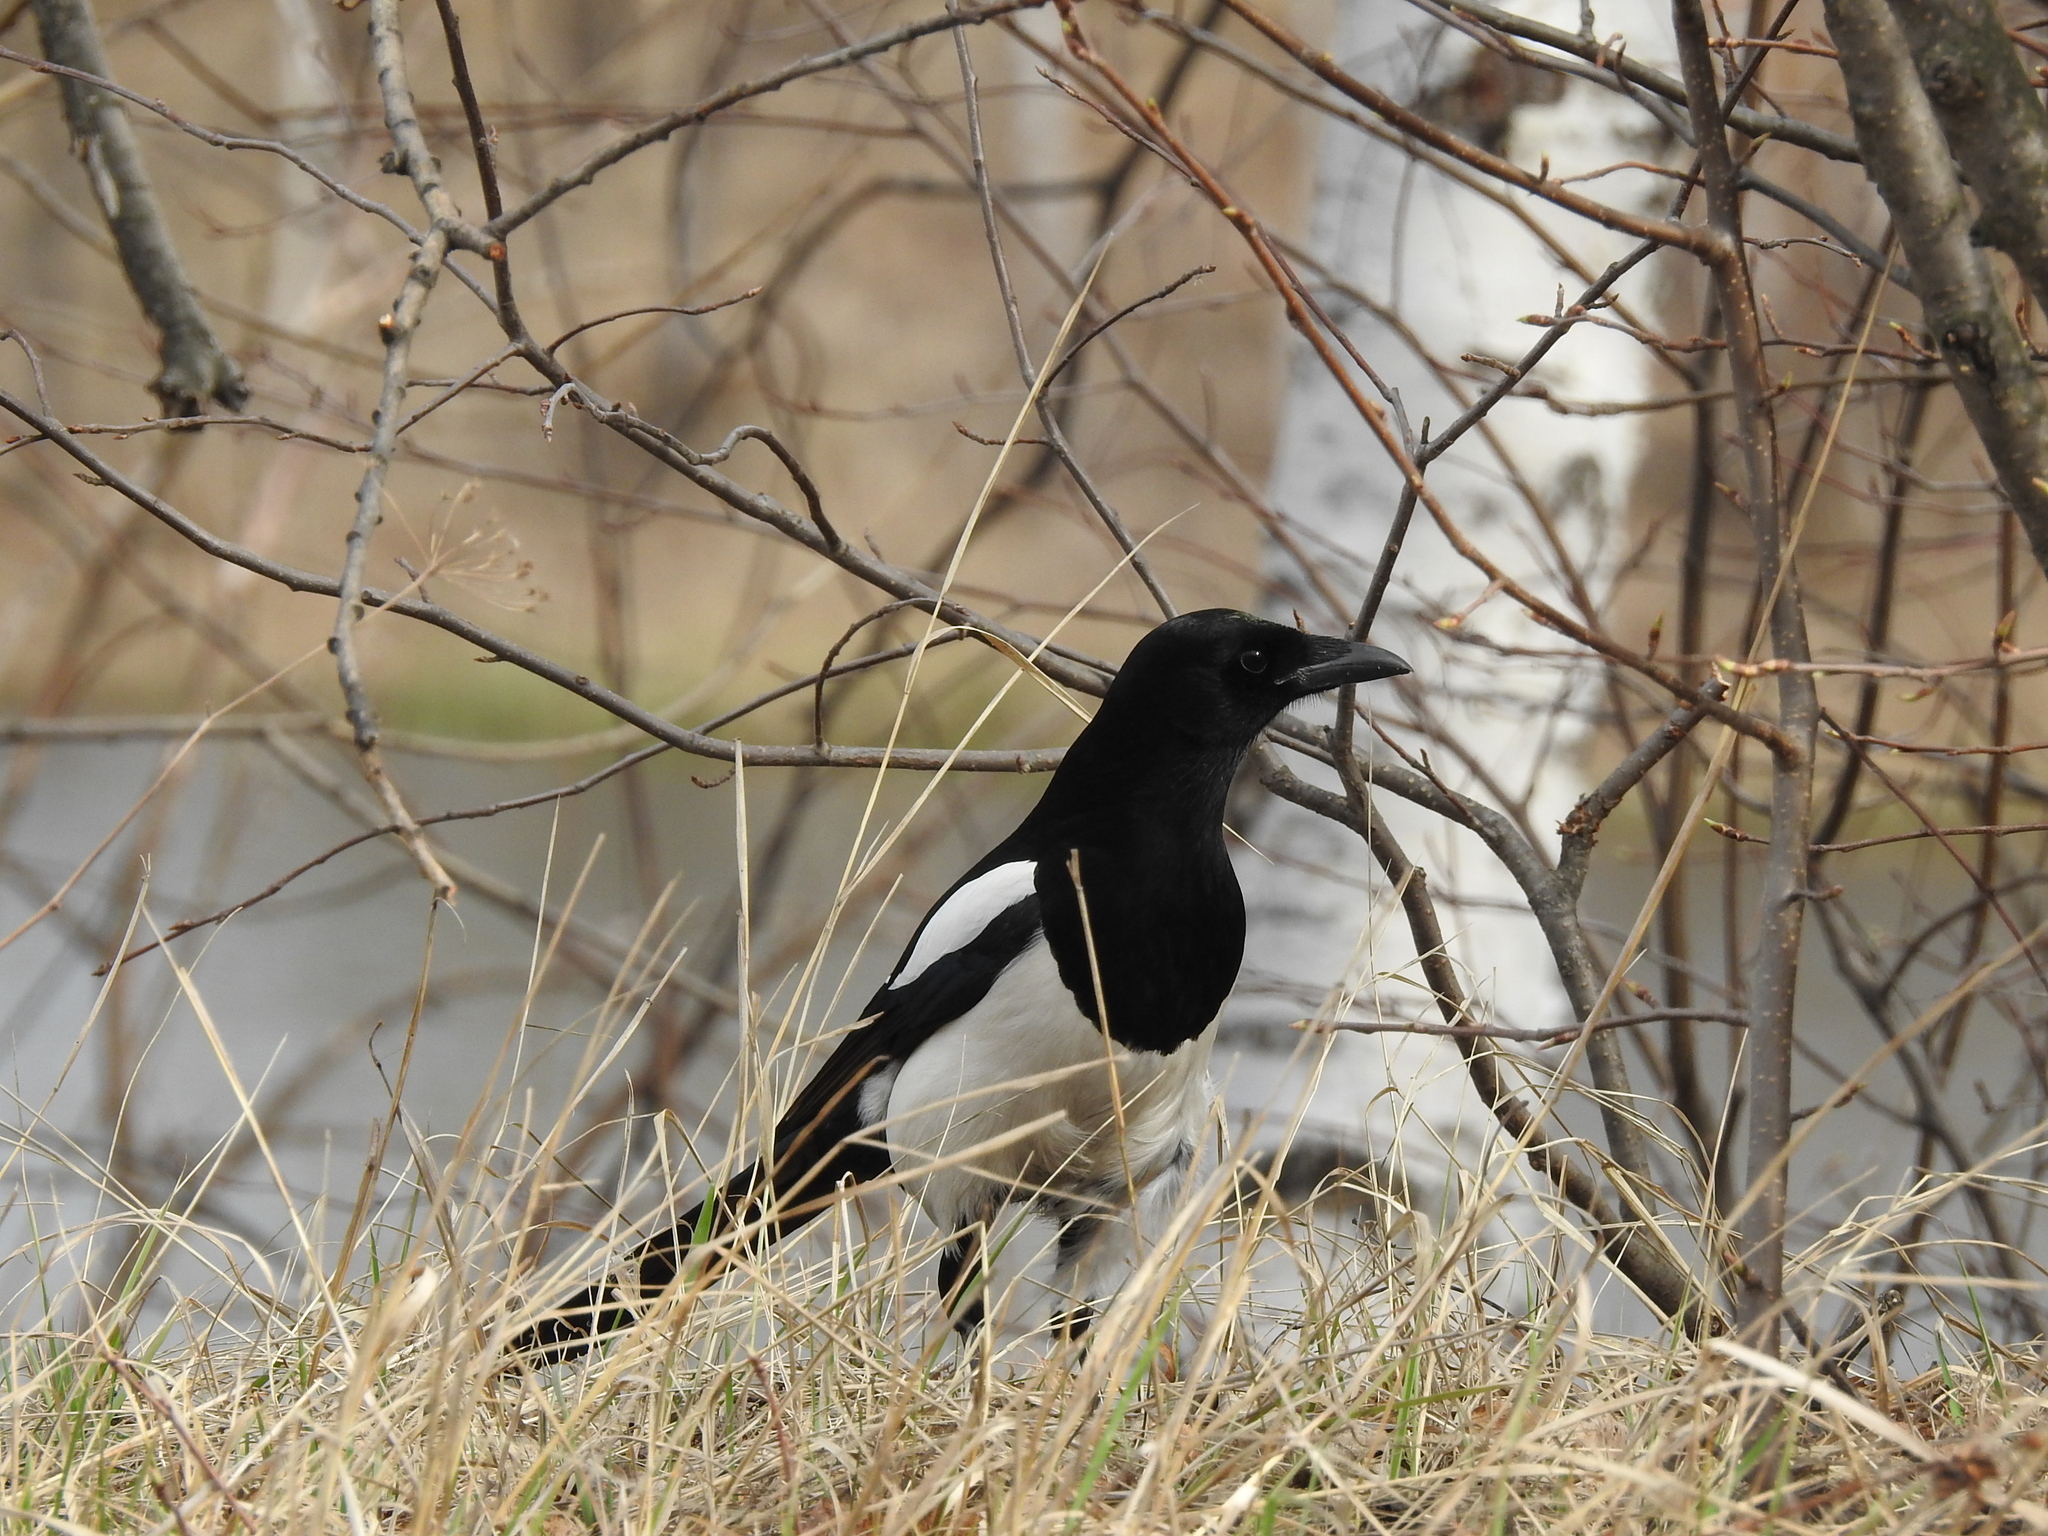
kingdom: Animalia
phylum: Chordata
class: Aves
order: Passeriformes
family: Corvidae
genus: Pica
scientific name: Pica pica
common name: Eurasian magpie
